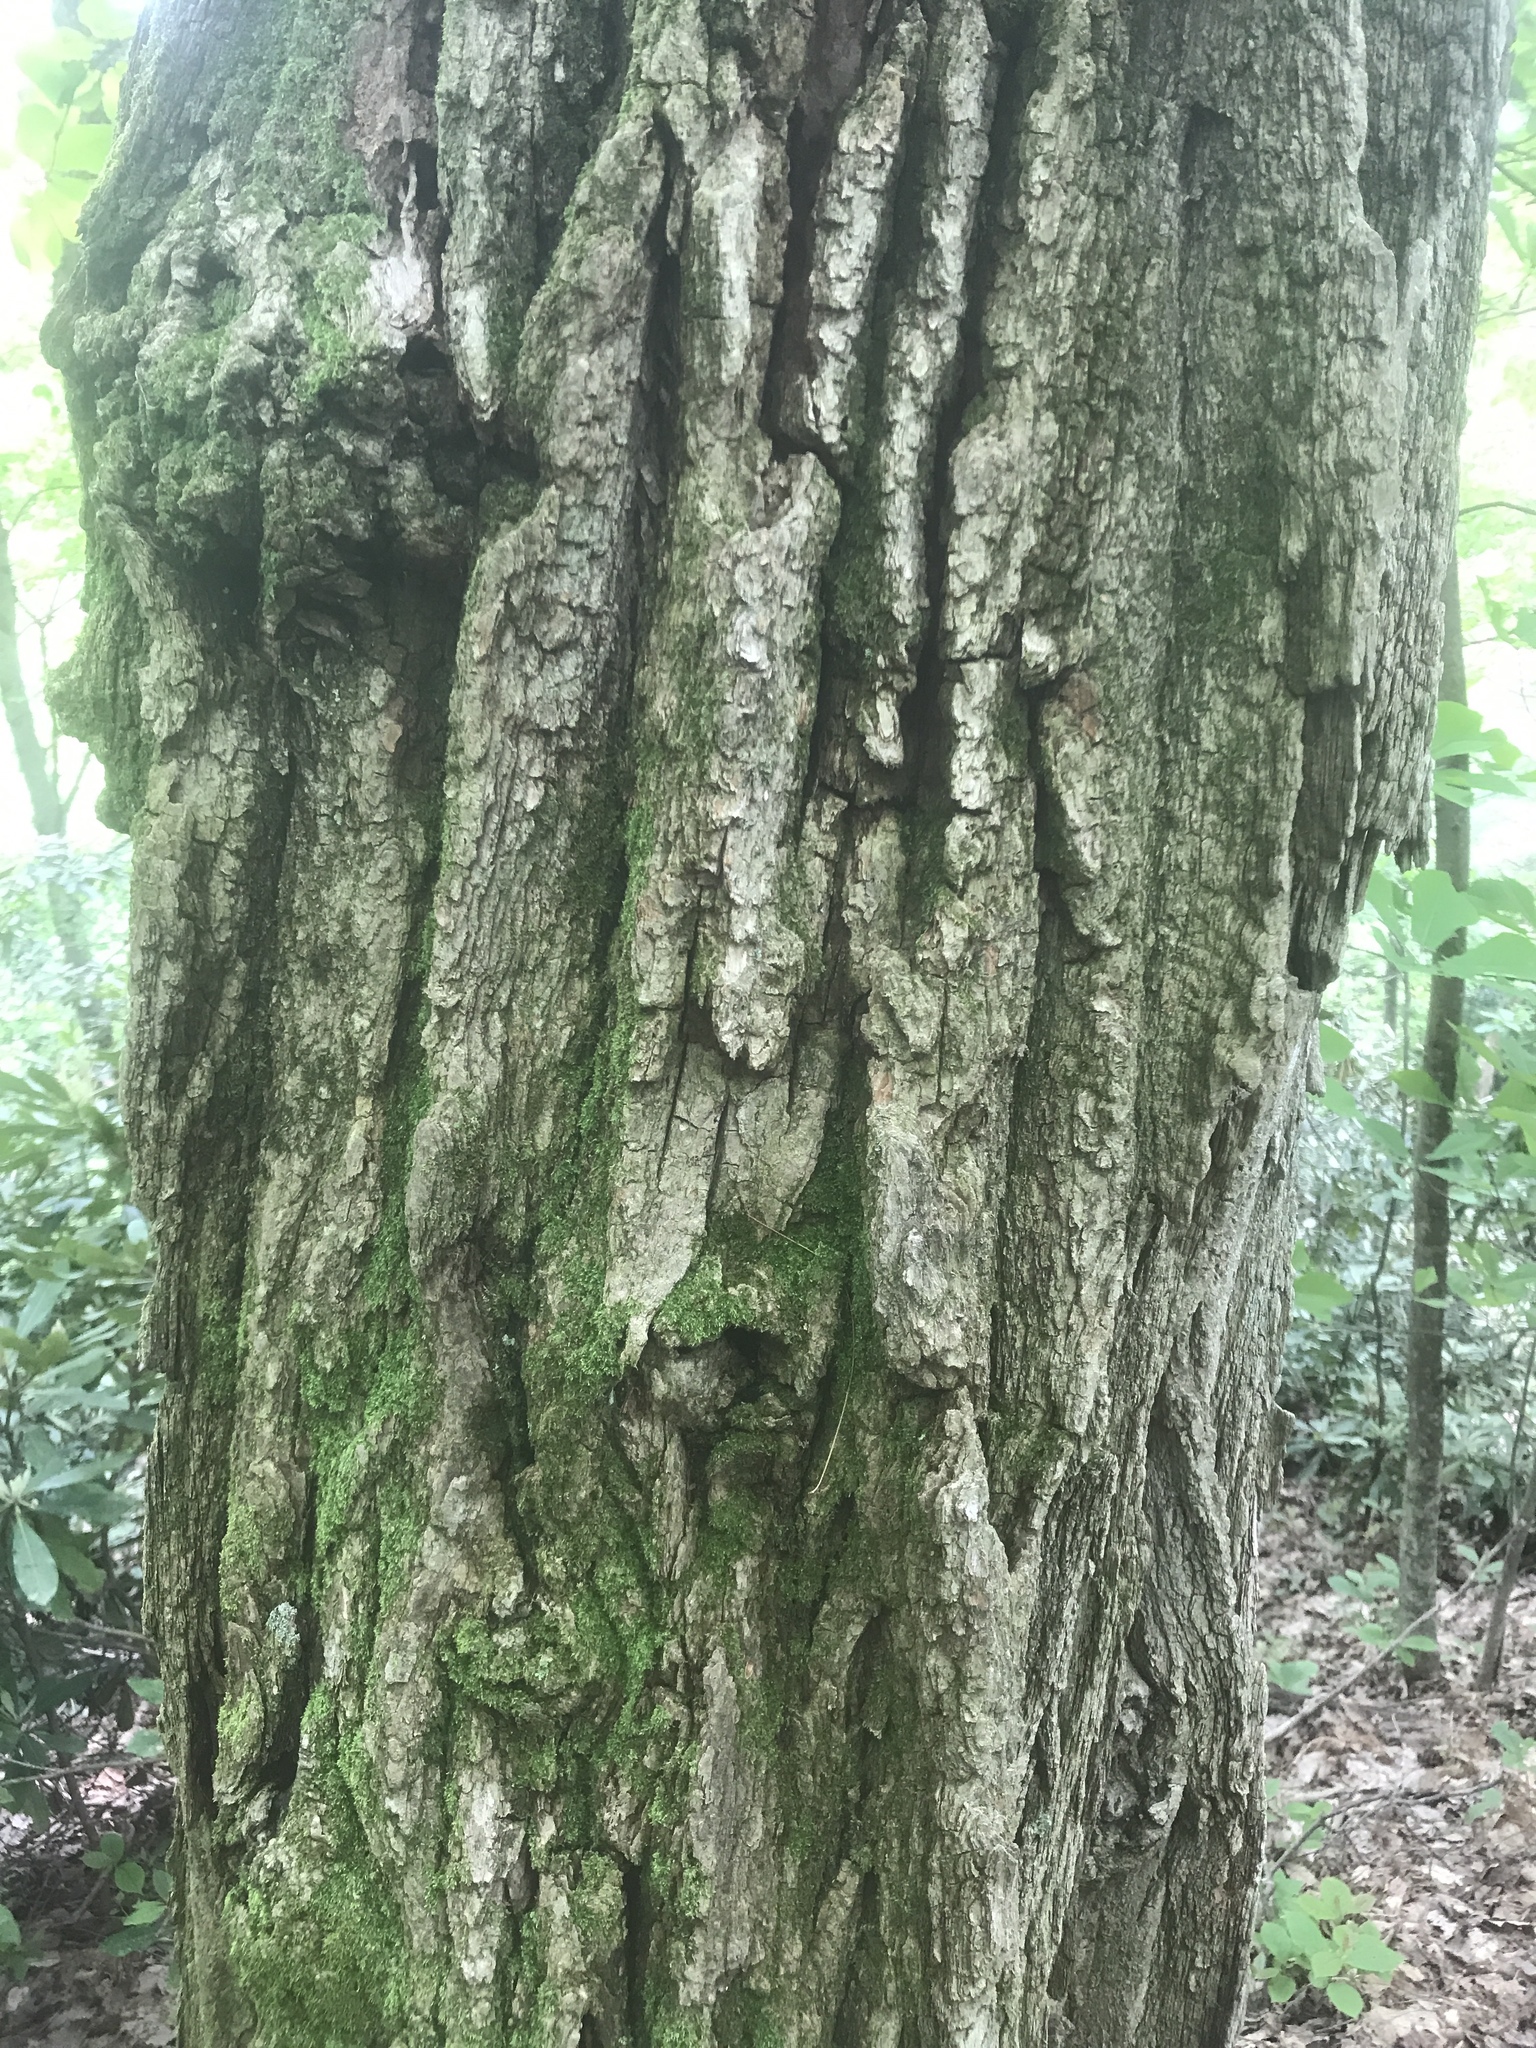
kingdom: Plantae
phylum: Tracheophyta
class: Magnoliopsida
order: Fabales
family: Fabaceae
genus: Robinia
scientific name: Robinia pseudoacacia
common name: Black locust
